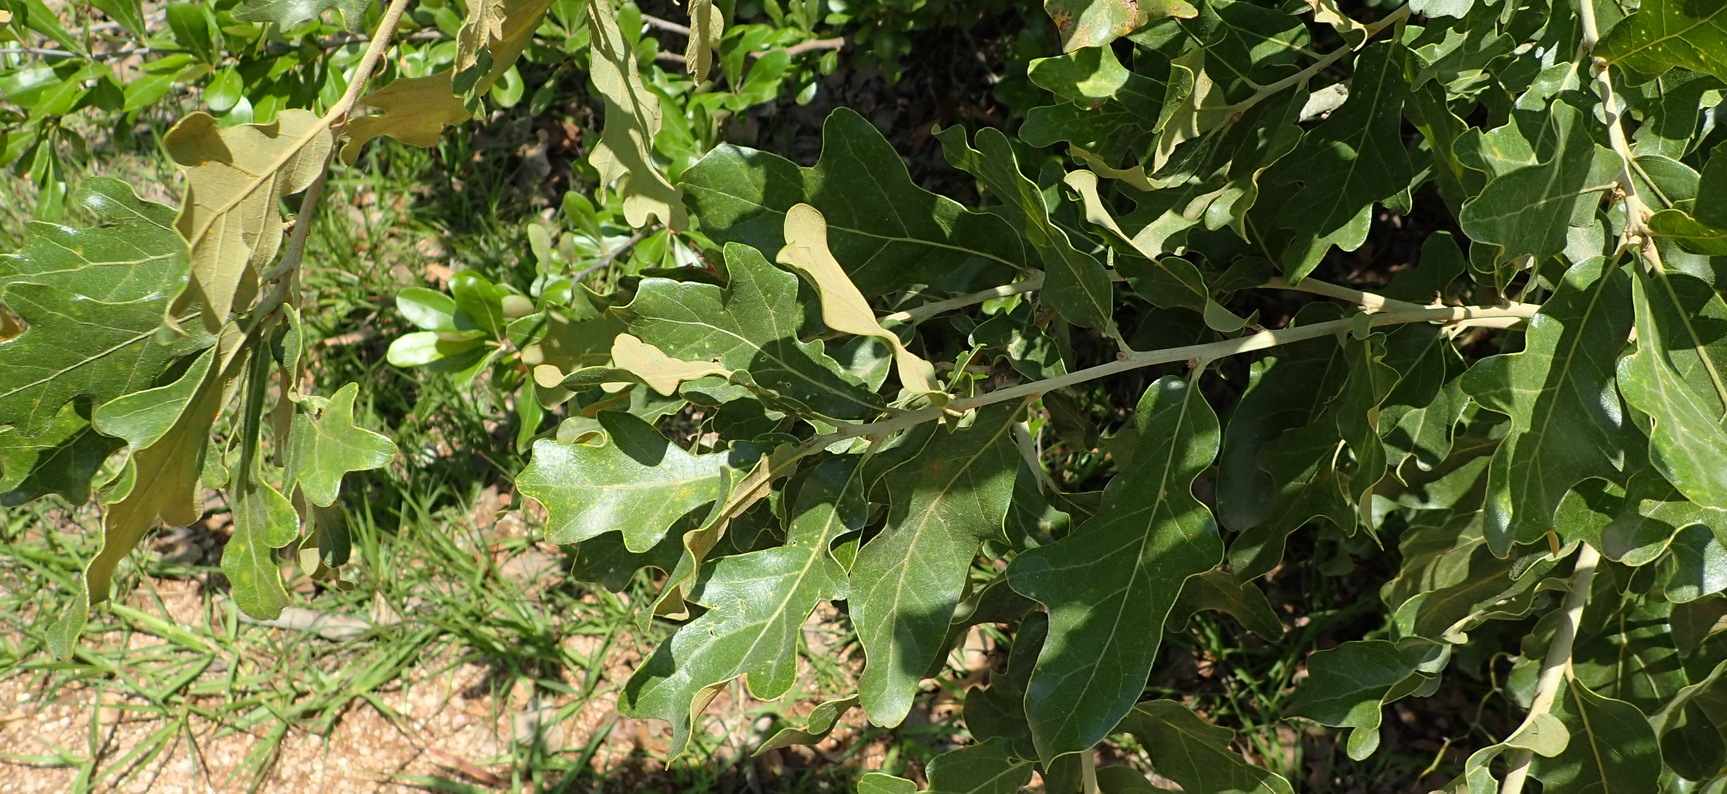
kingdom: Plantae
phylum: Tracheophyta
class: Magnoliopsida
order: Fagales
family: Fagaceae
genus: Quercus
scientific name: Quercus similis
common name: Delta post oak
